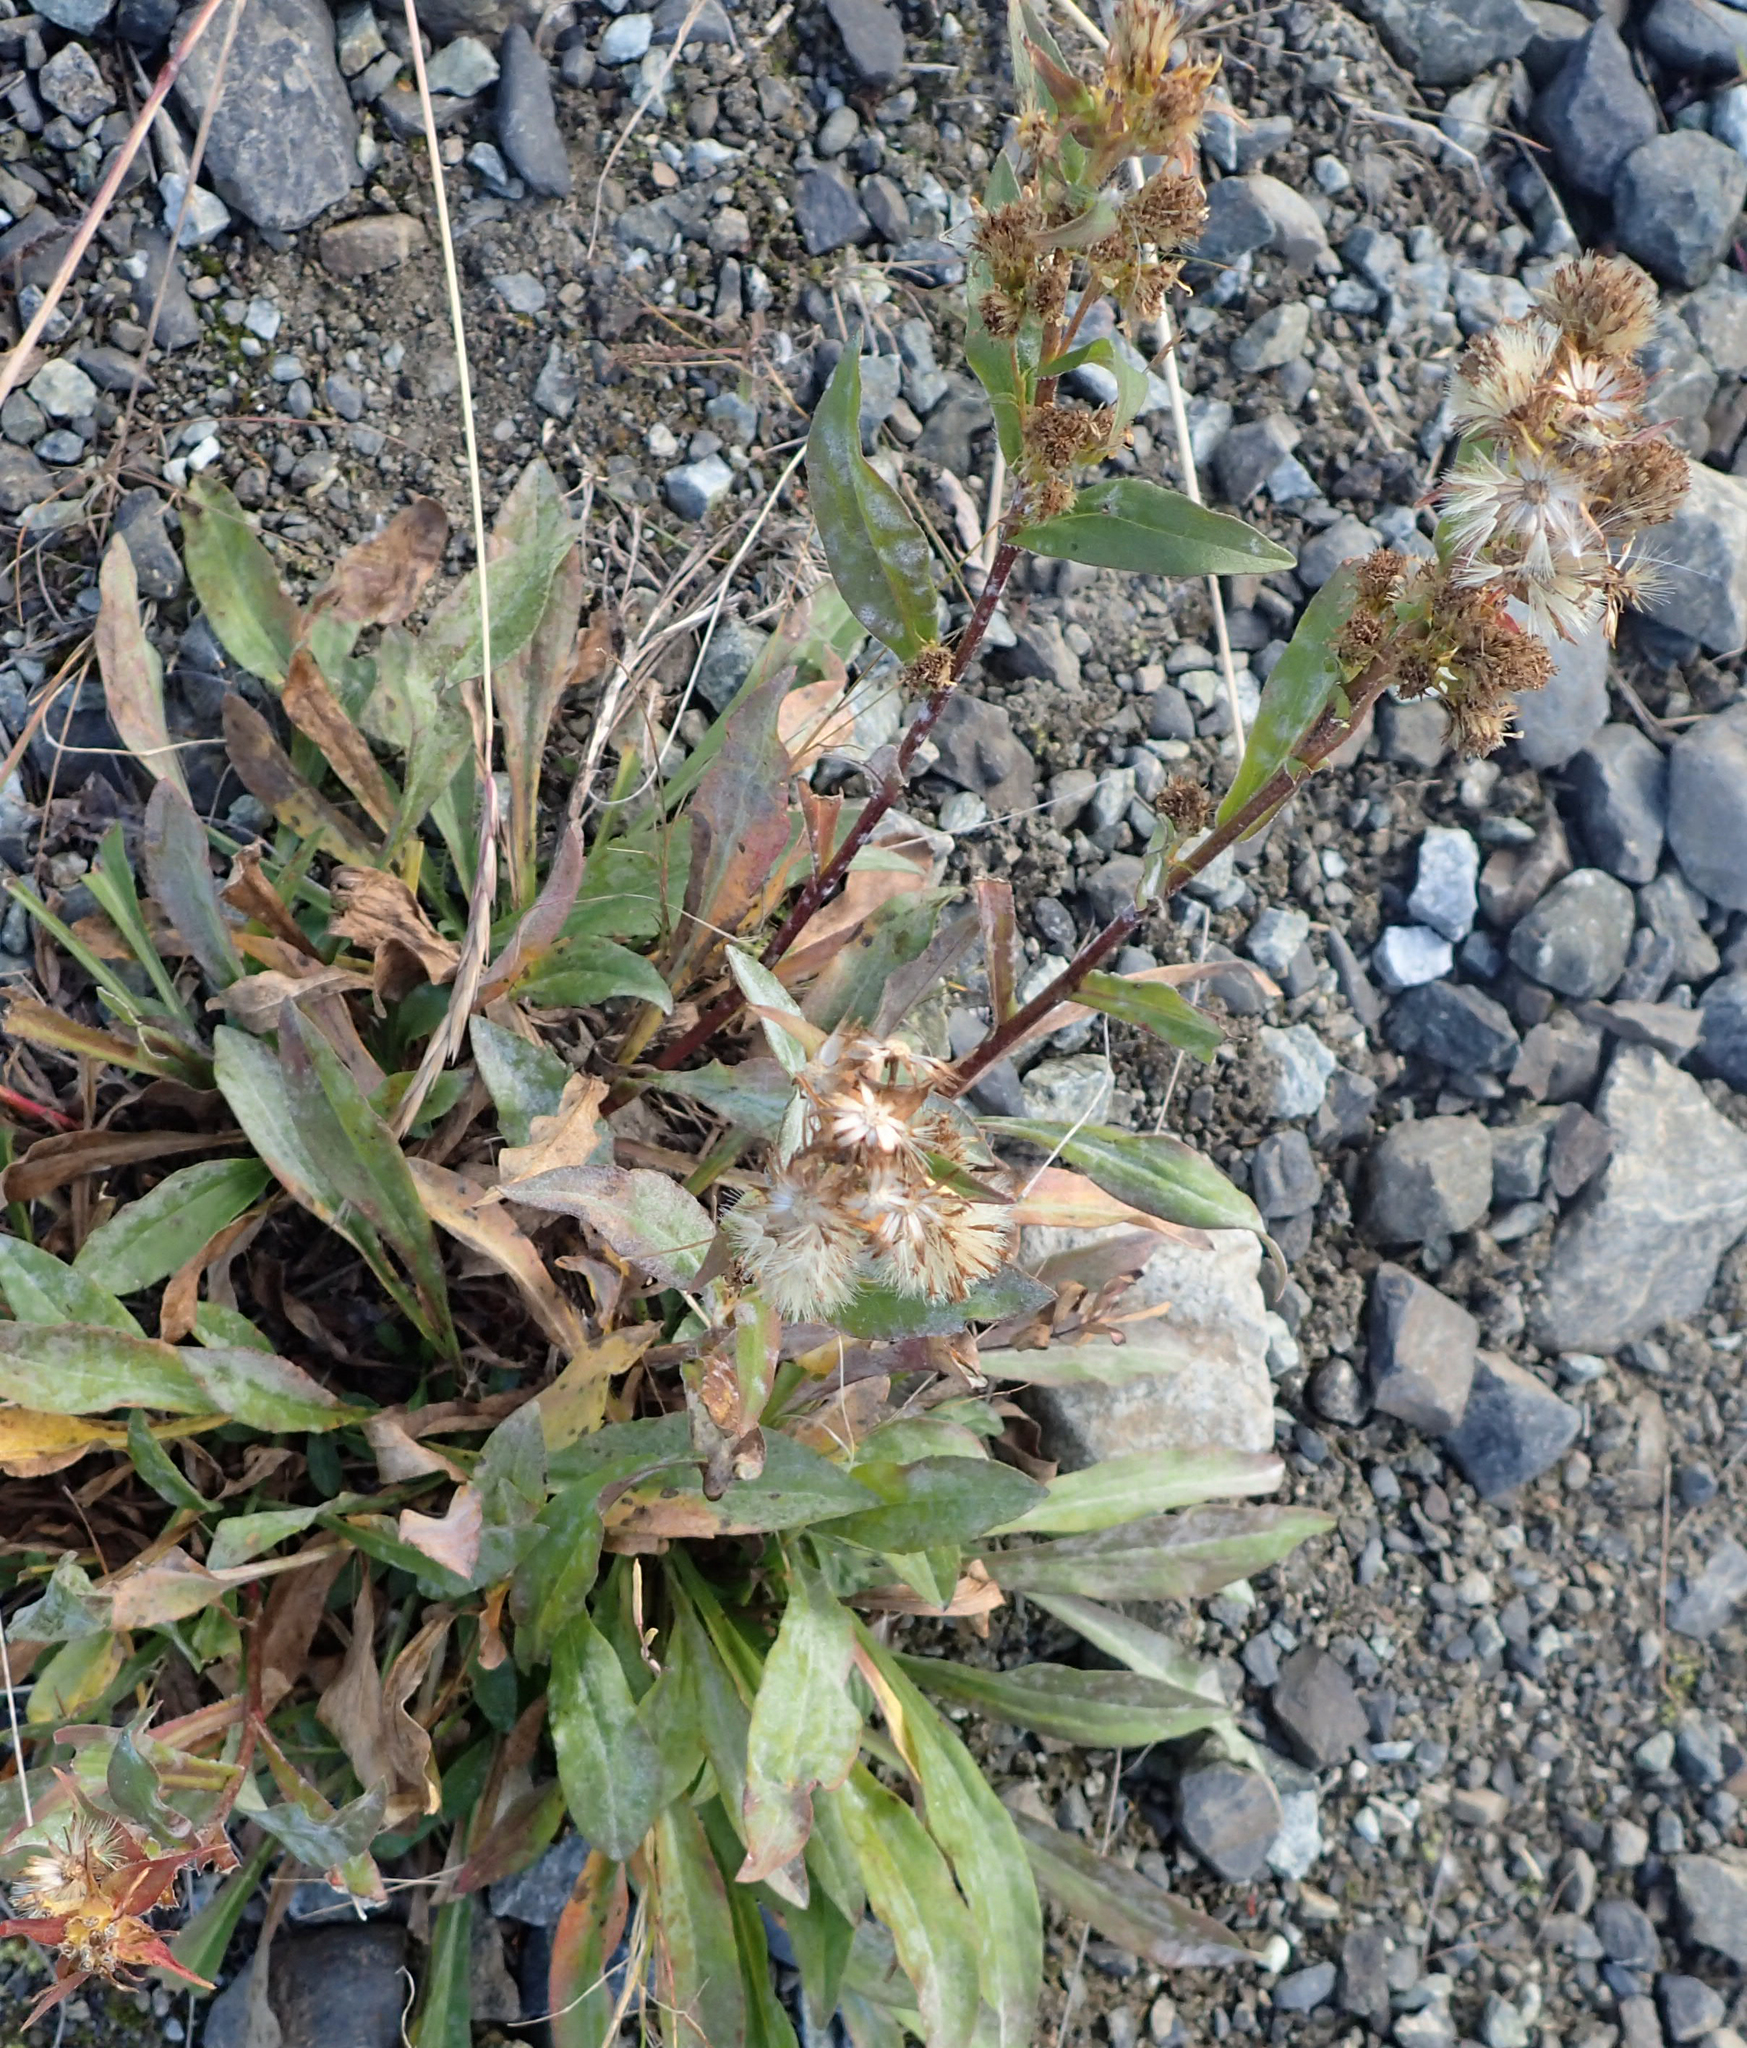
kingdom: Plantae
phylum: Tracheophyta
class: Magnoliopsida
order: Asterales
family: Asteraceae
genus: Solidago
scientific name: Solidago multiradiata
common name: Northern goldenrod
